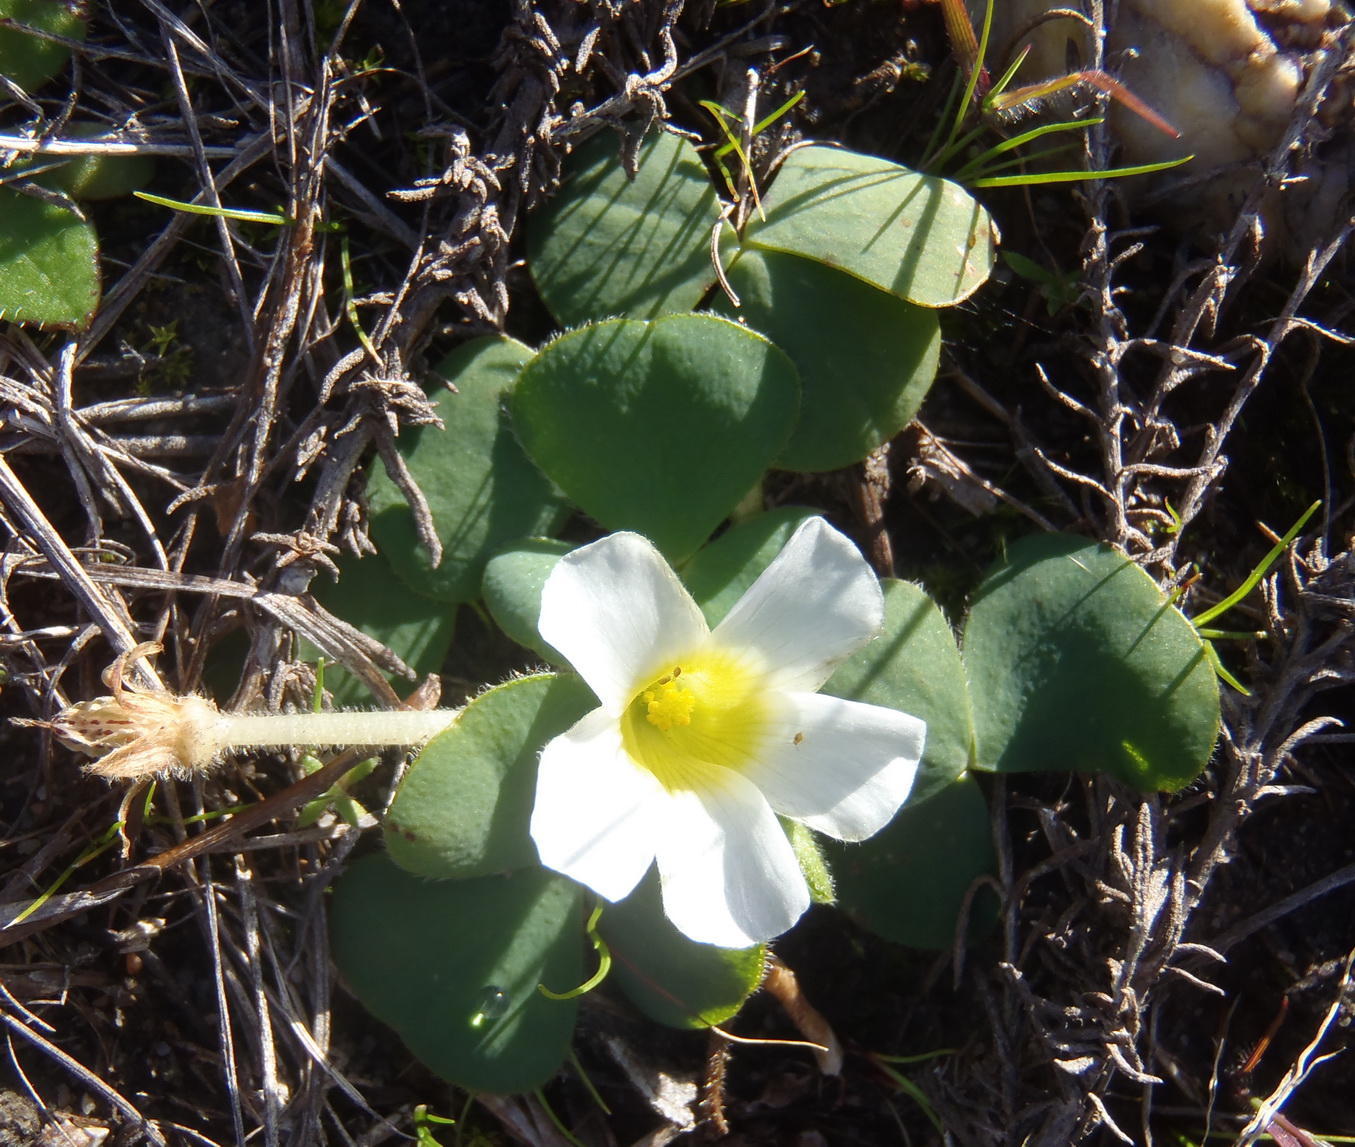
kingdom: Plantae
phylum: Tracheophyta
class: Magnoliopsida
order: Oxalidales
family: Oxalidaceae
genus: Oxalis
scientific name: Oxalis purpurea
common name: Purple woodsorrel
